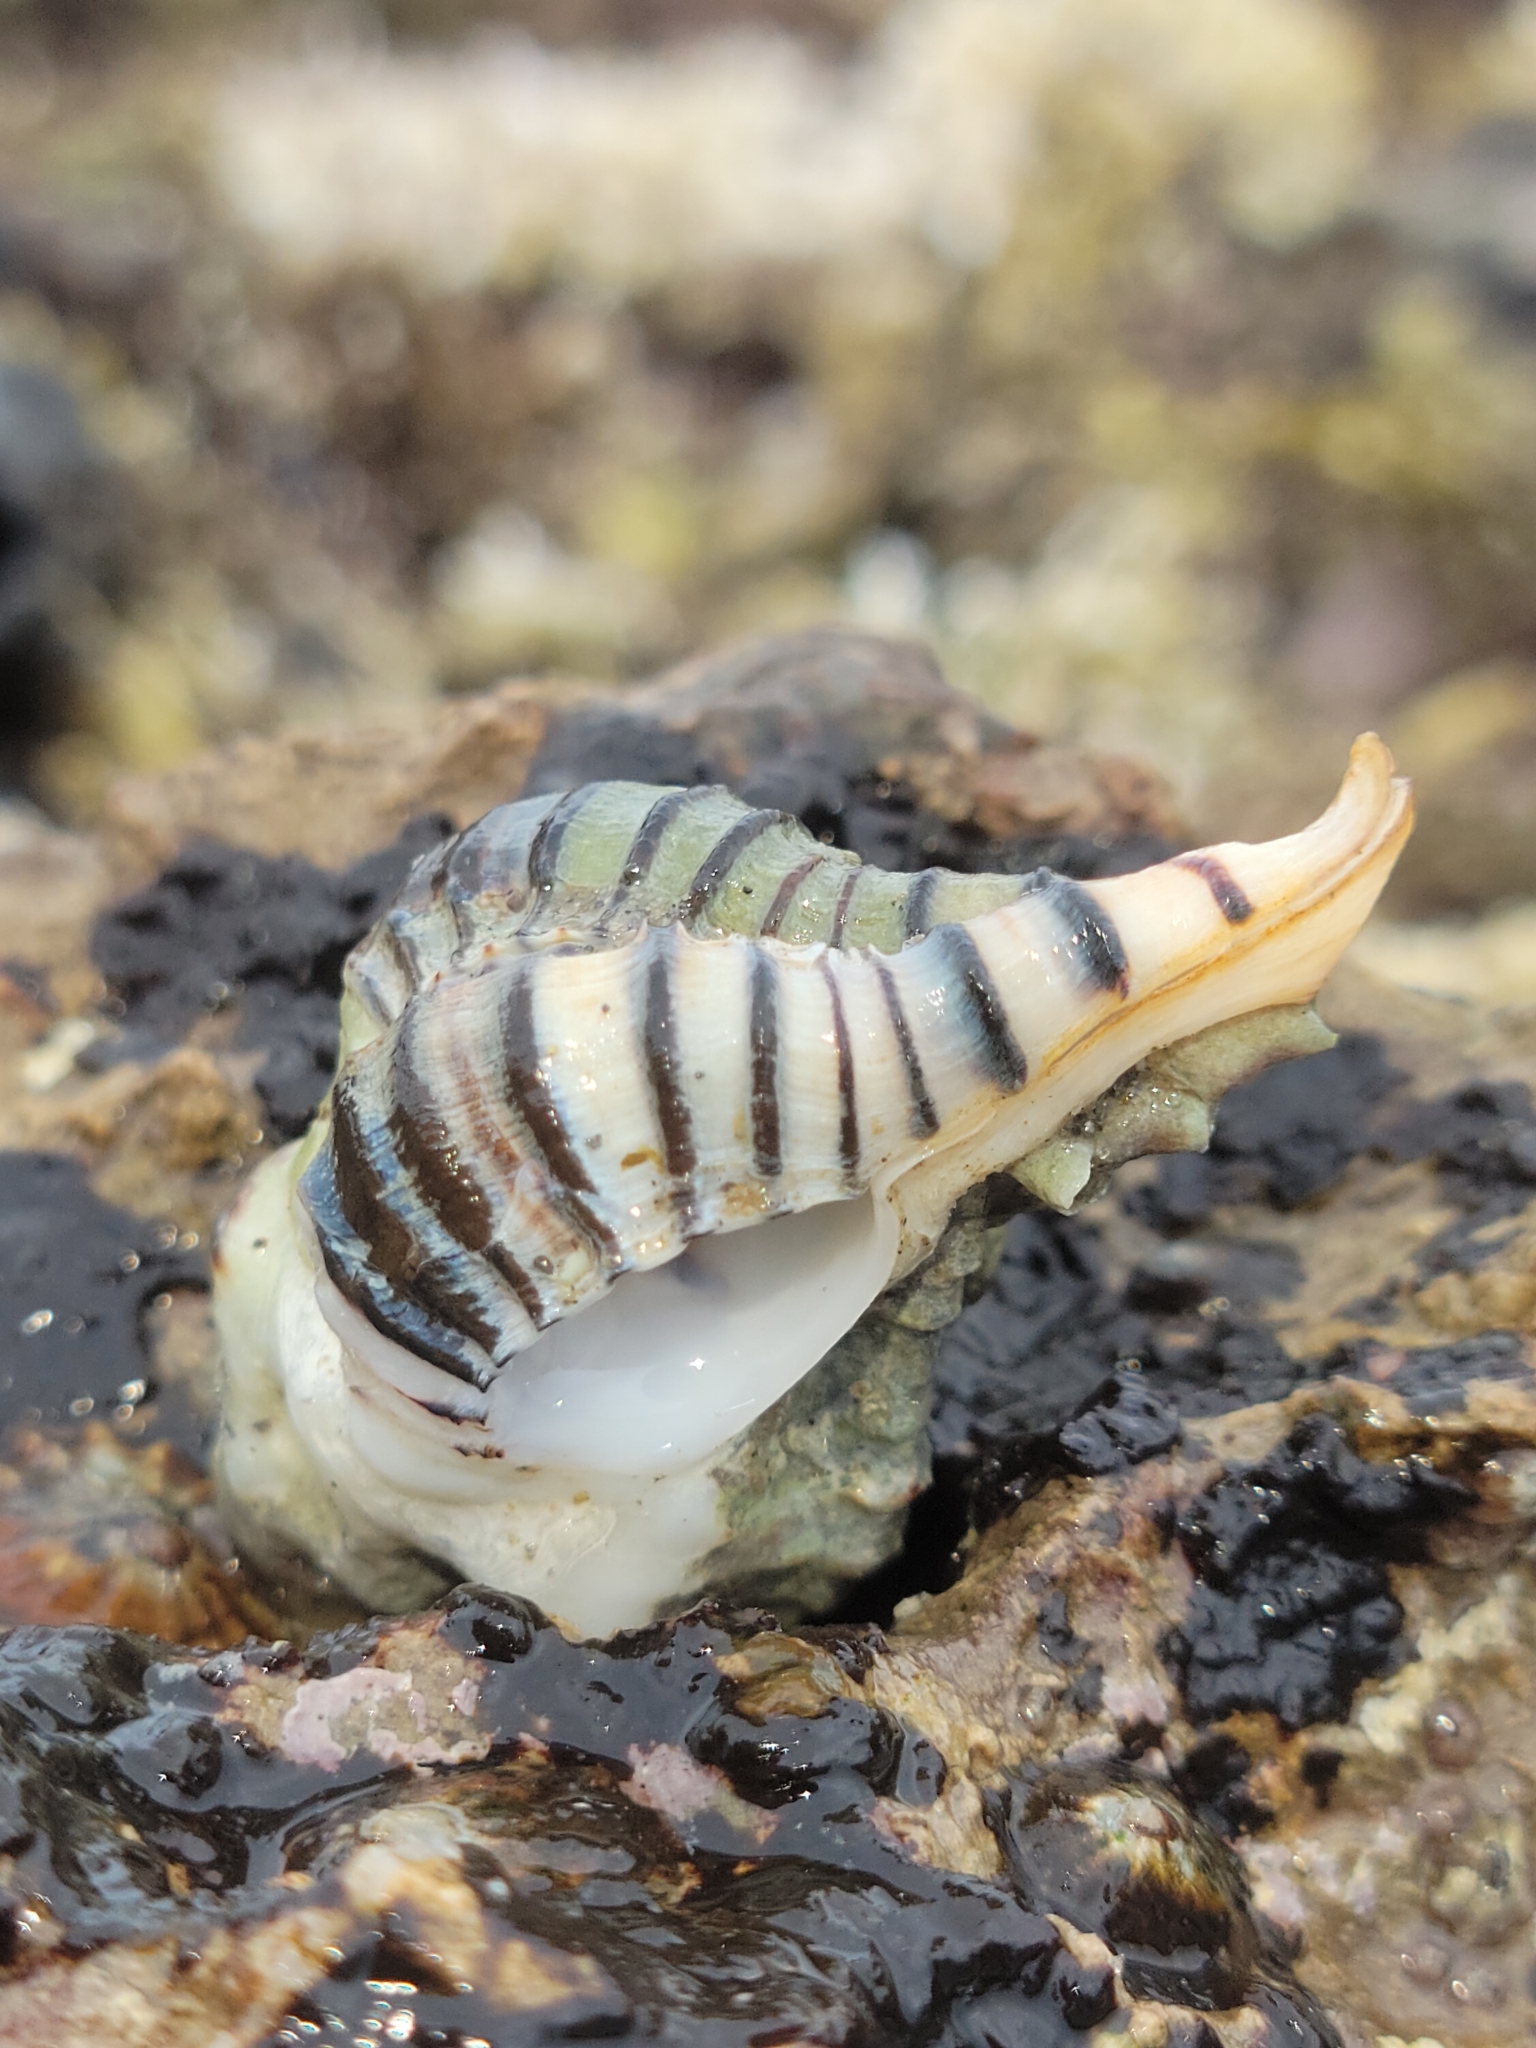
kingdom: Animalia
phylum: Mollusca
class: Gastropoda
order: Neogastropoda
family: Muricidae
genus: Maxwellia
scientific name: Maxwellia gemma
